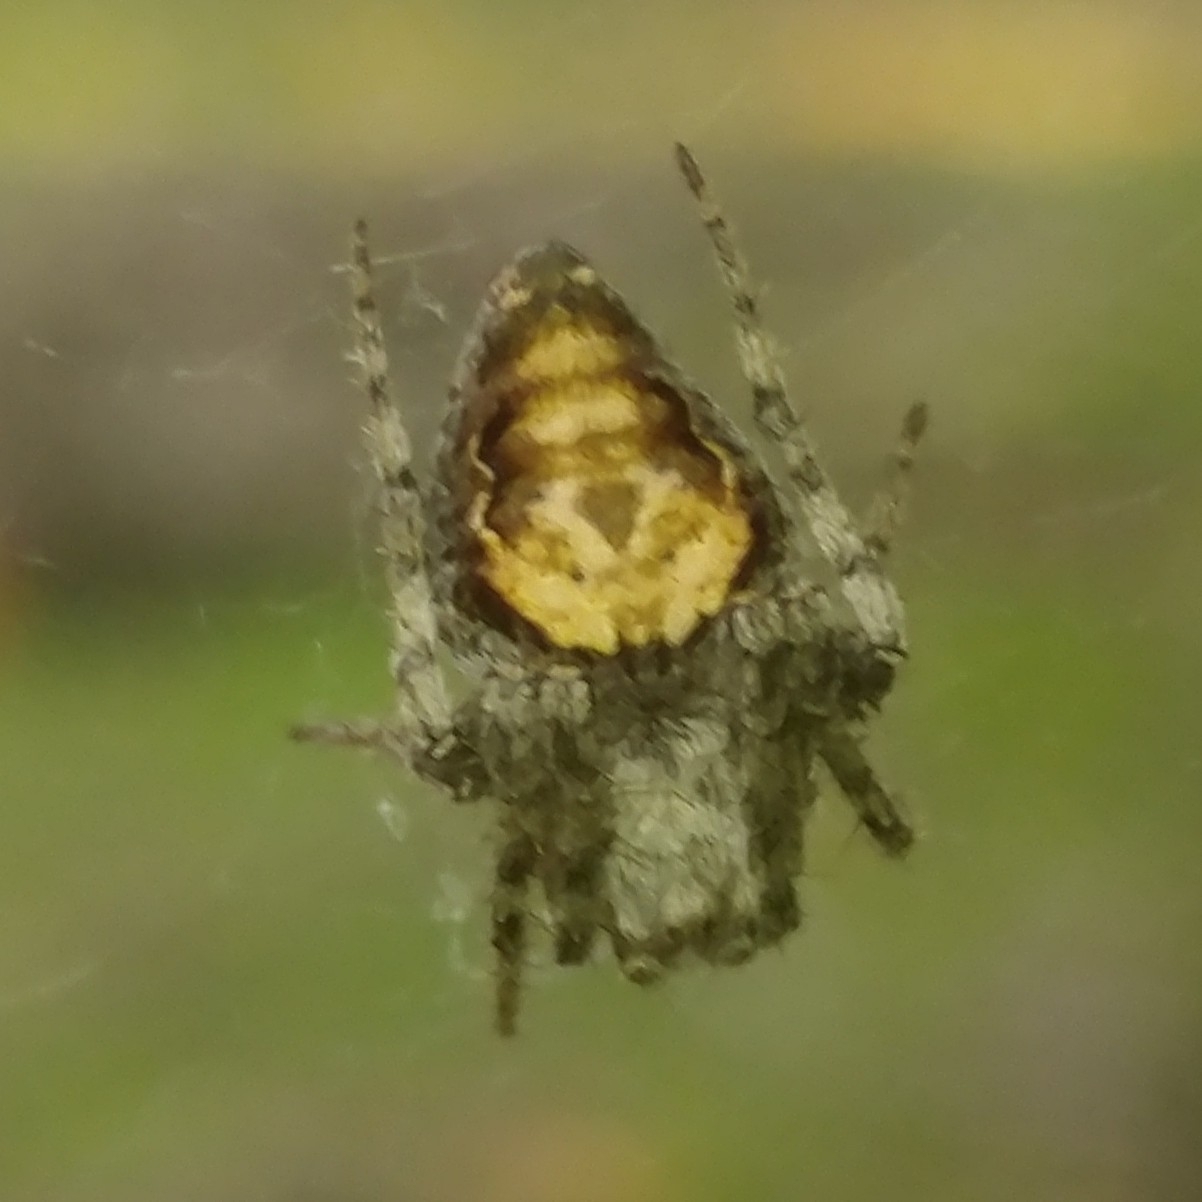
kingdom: Animalia
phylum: Arthropoda
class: Arachnida
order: Araneae
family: Araneidae
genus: Eustala
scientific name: Eustala anastera
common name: Orb weavers
